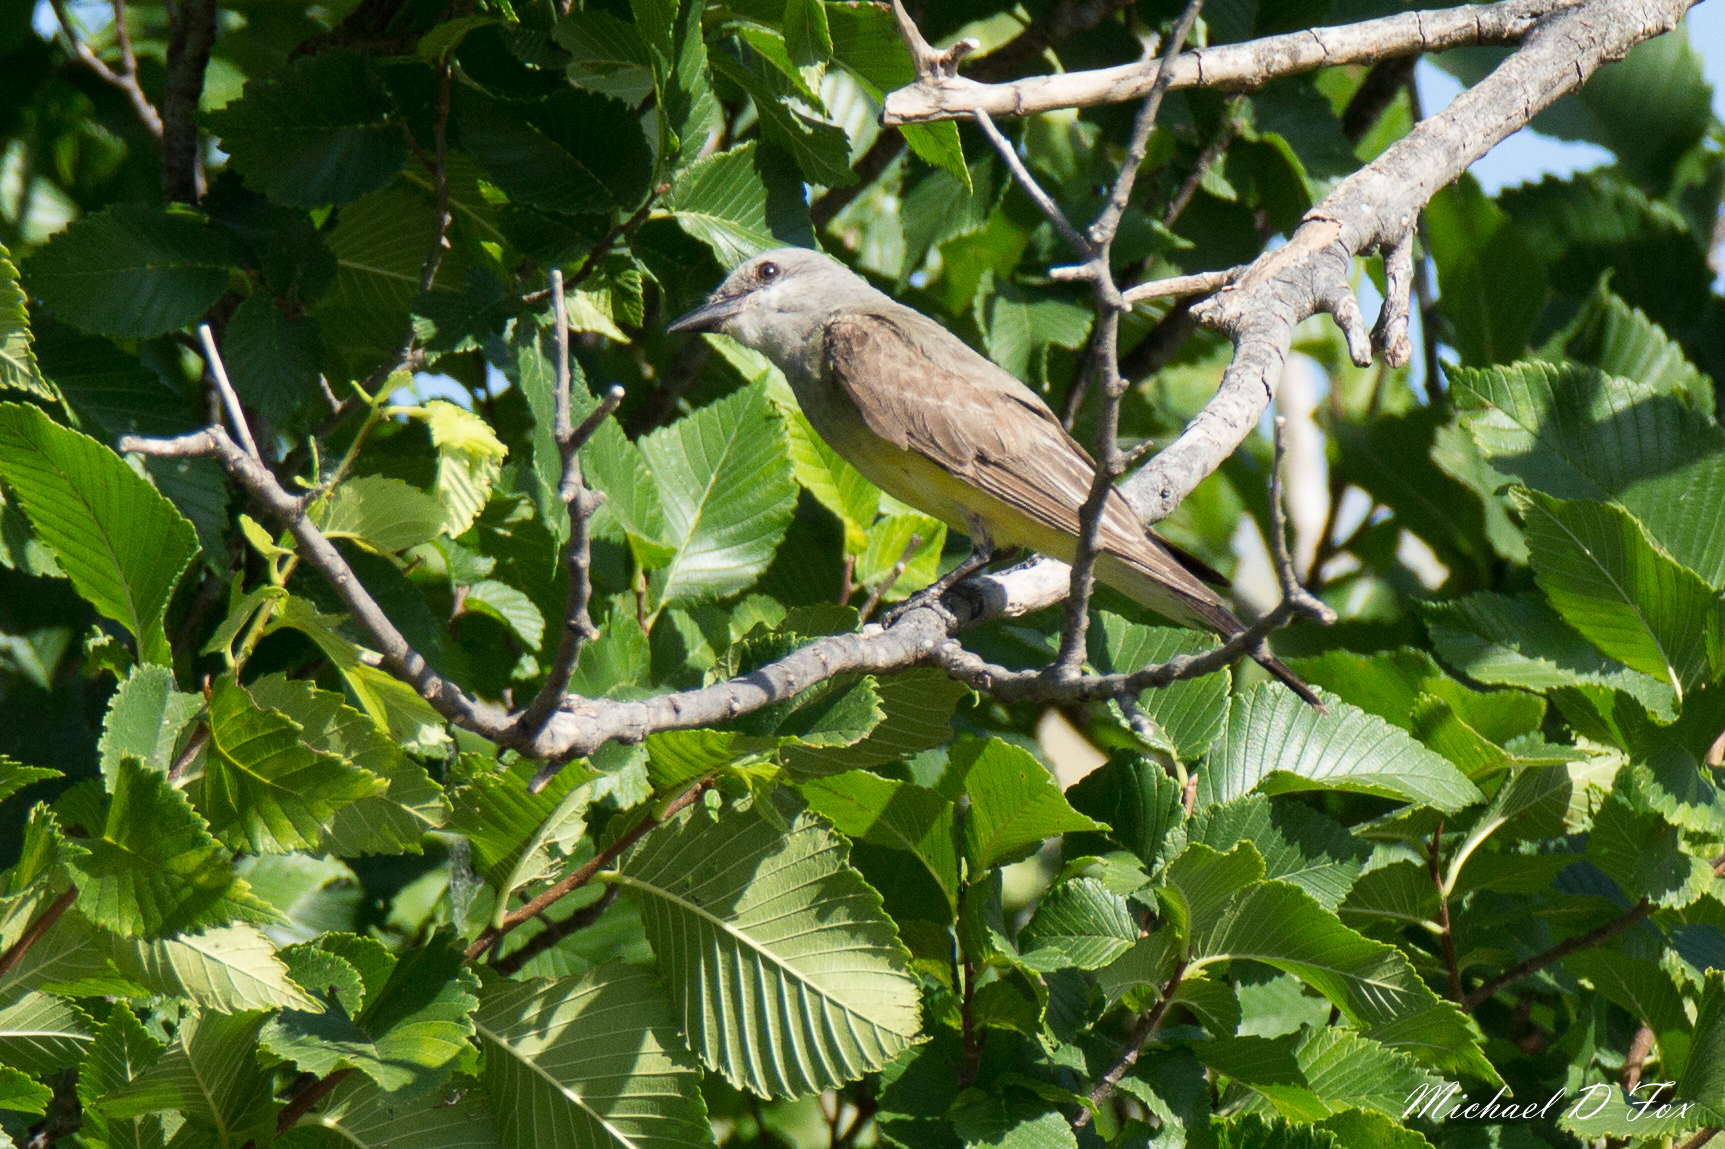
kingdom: Animalia
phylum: Chordata
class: Aves
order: Passeriformes
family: Tyrannidae
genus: Tyrannus
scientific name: Tyrannus verticalis
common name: Western kingbird
